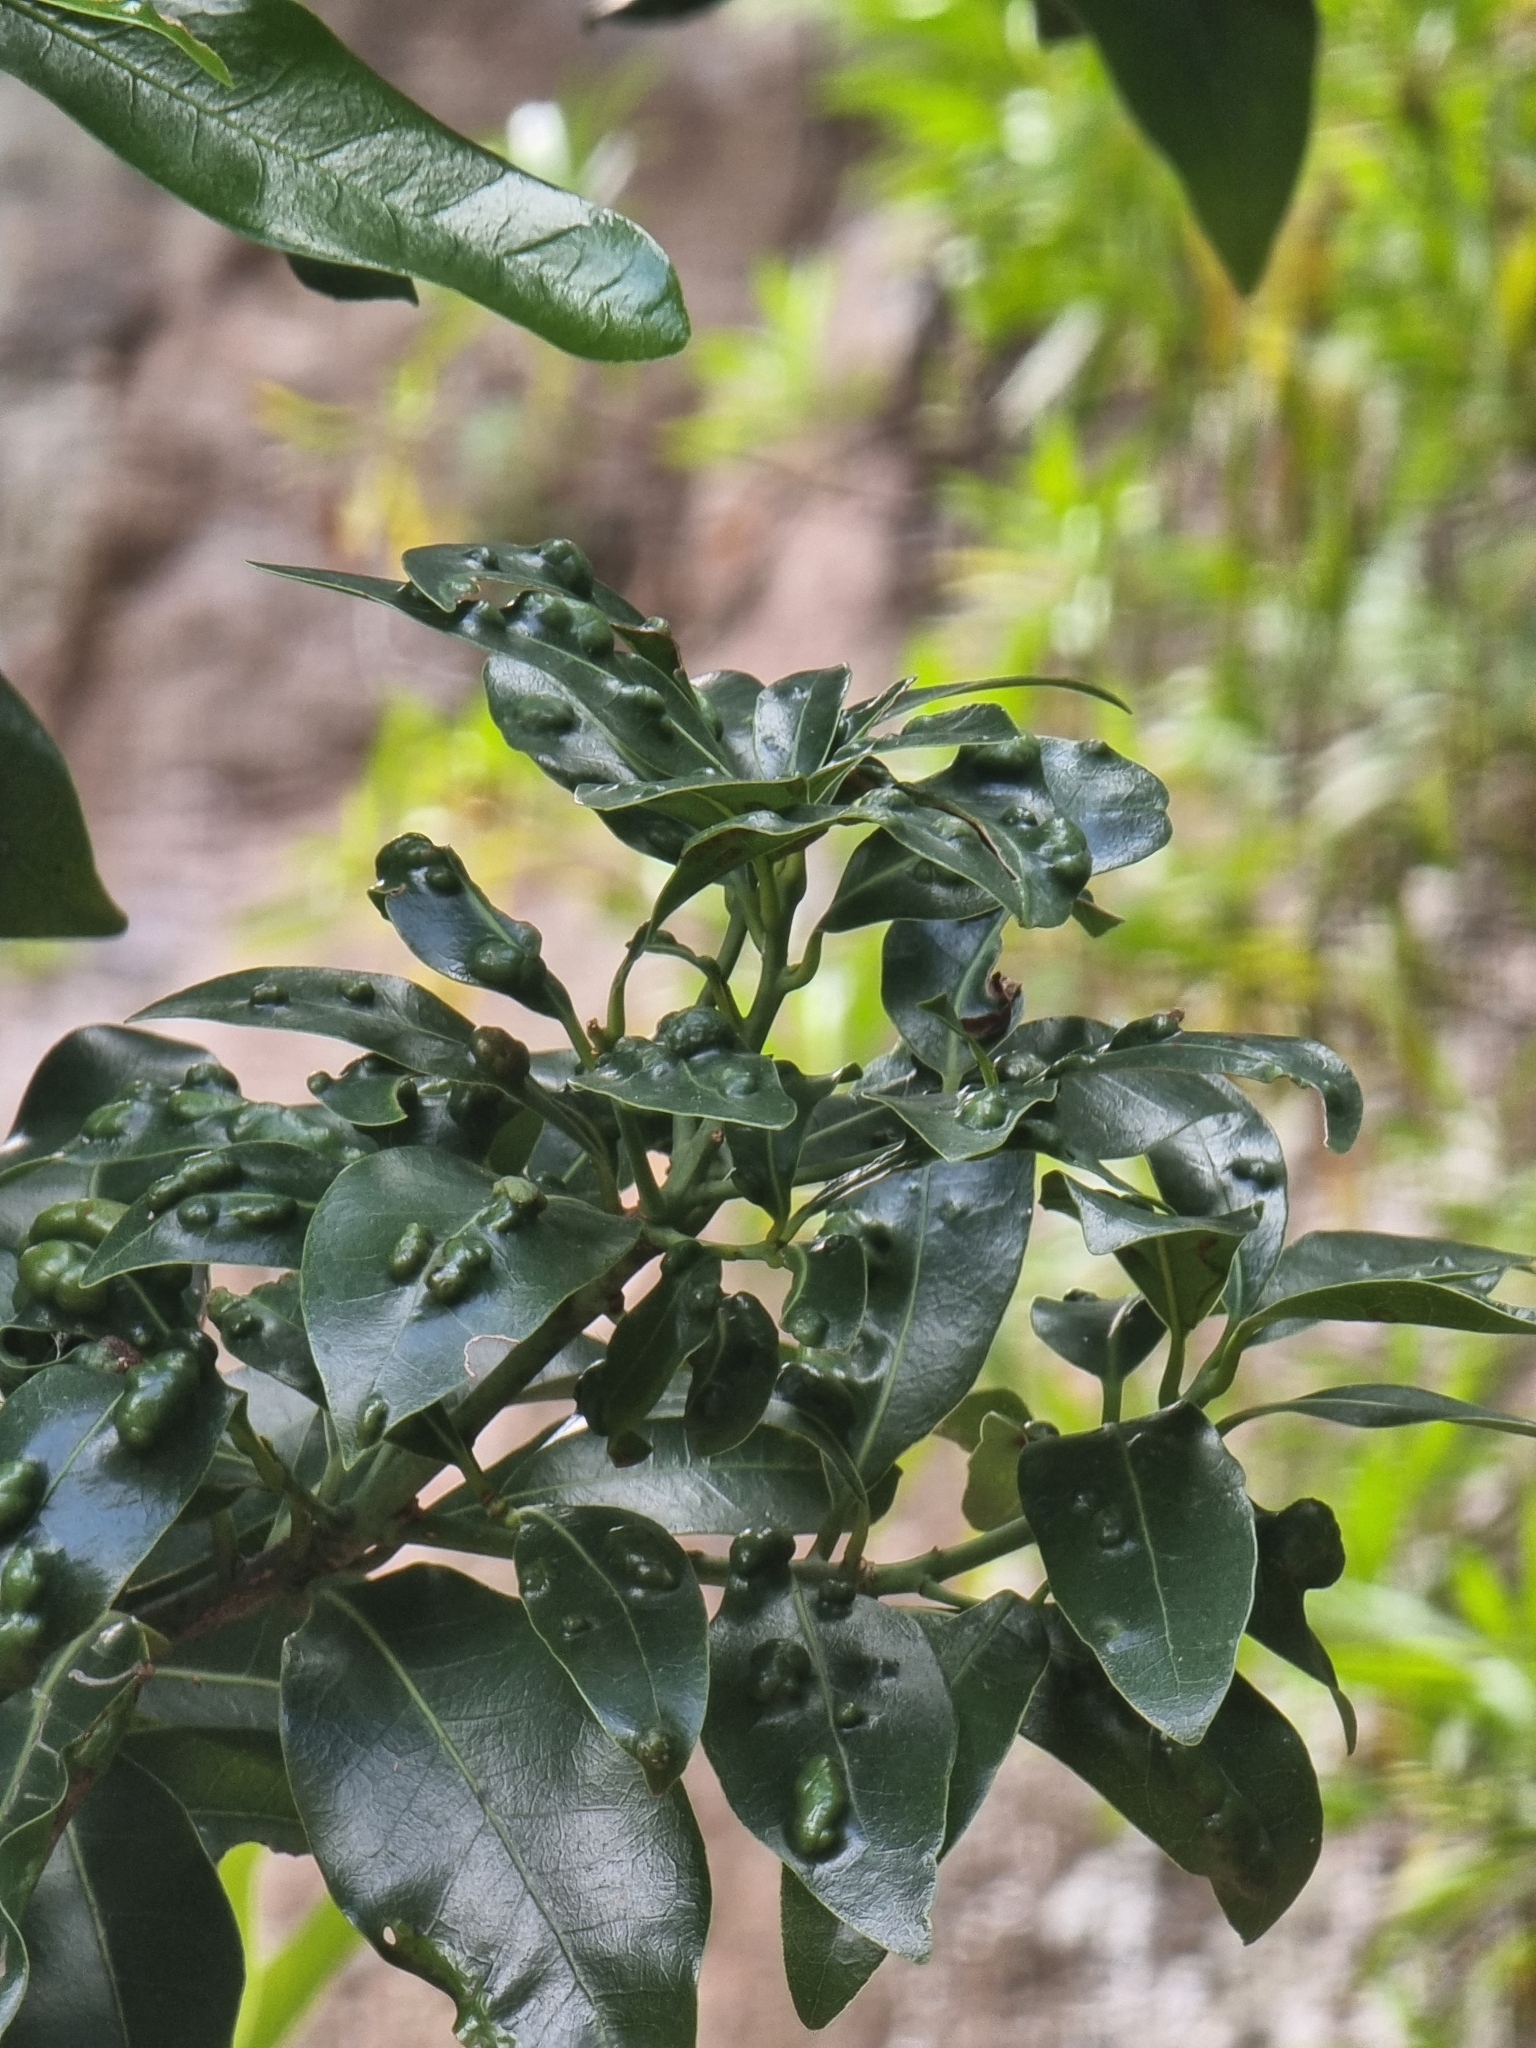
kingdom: Plantae
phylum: Tracheophyta
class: Magnoliopsida
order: Laurales
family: Lauraceae
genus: Apollonias
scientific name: Apollonias barbujana
